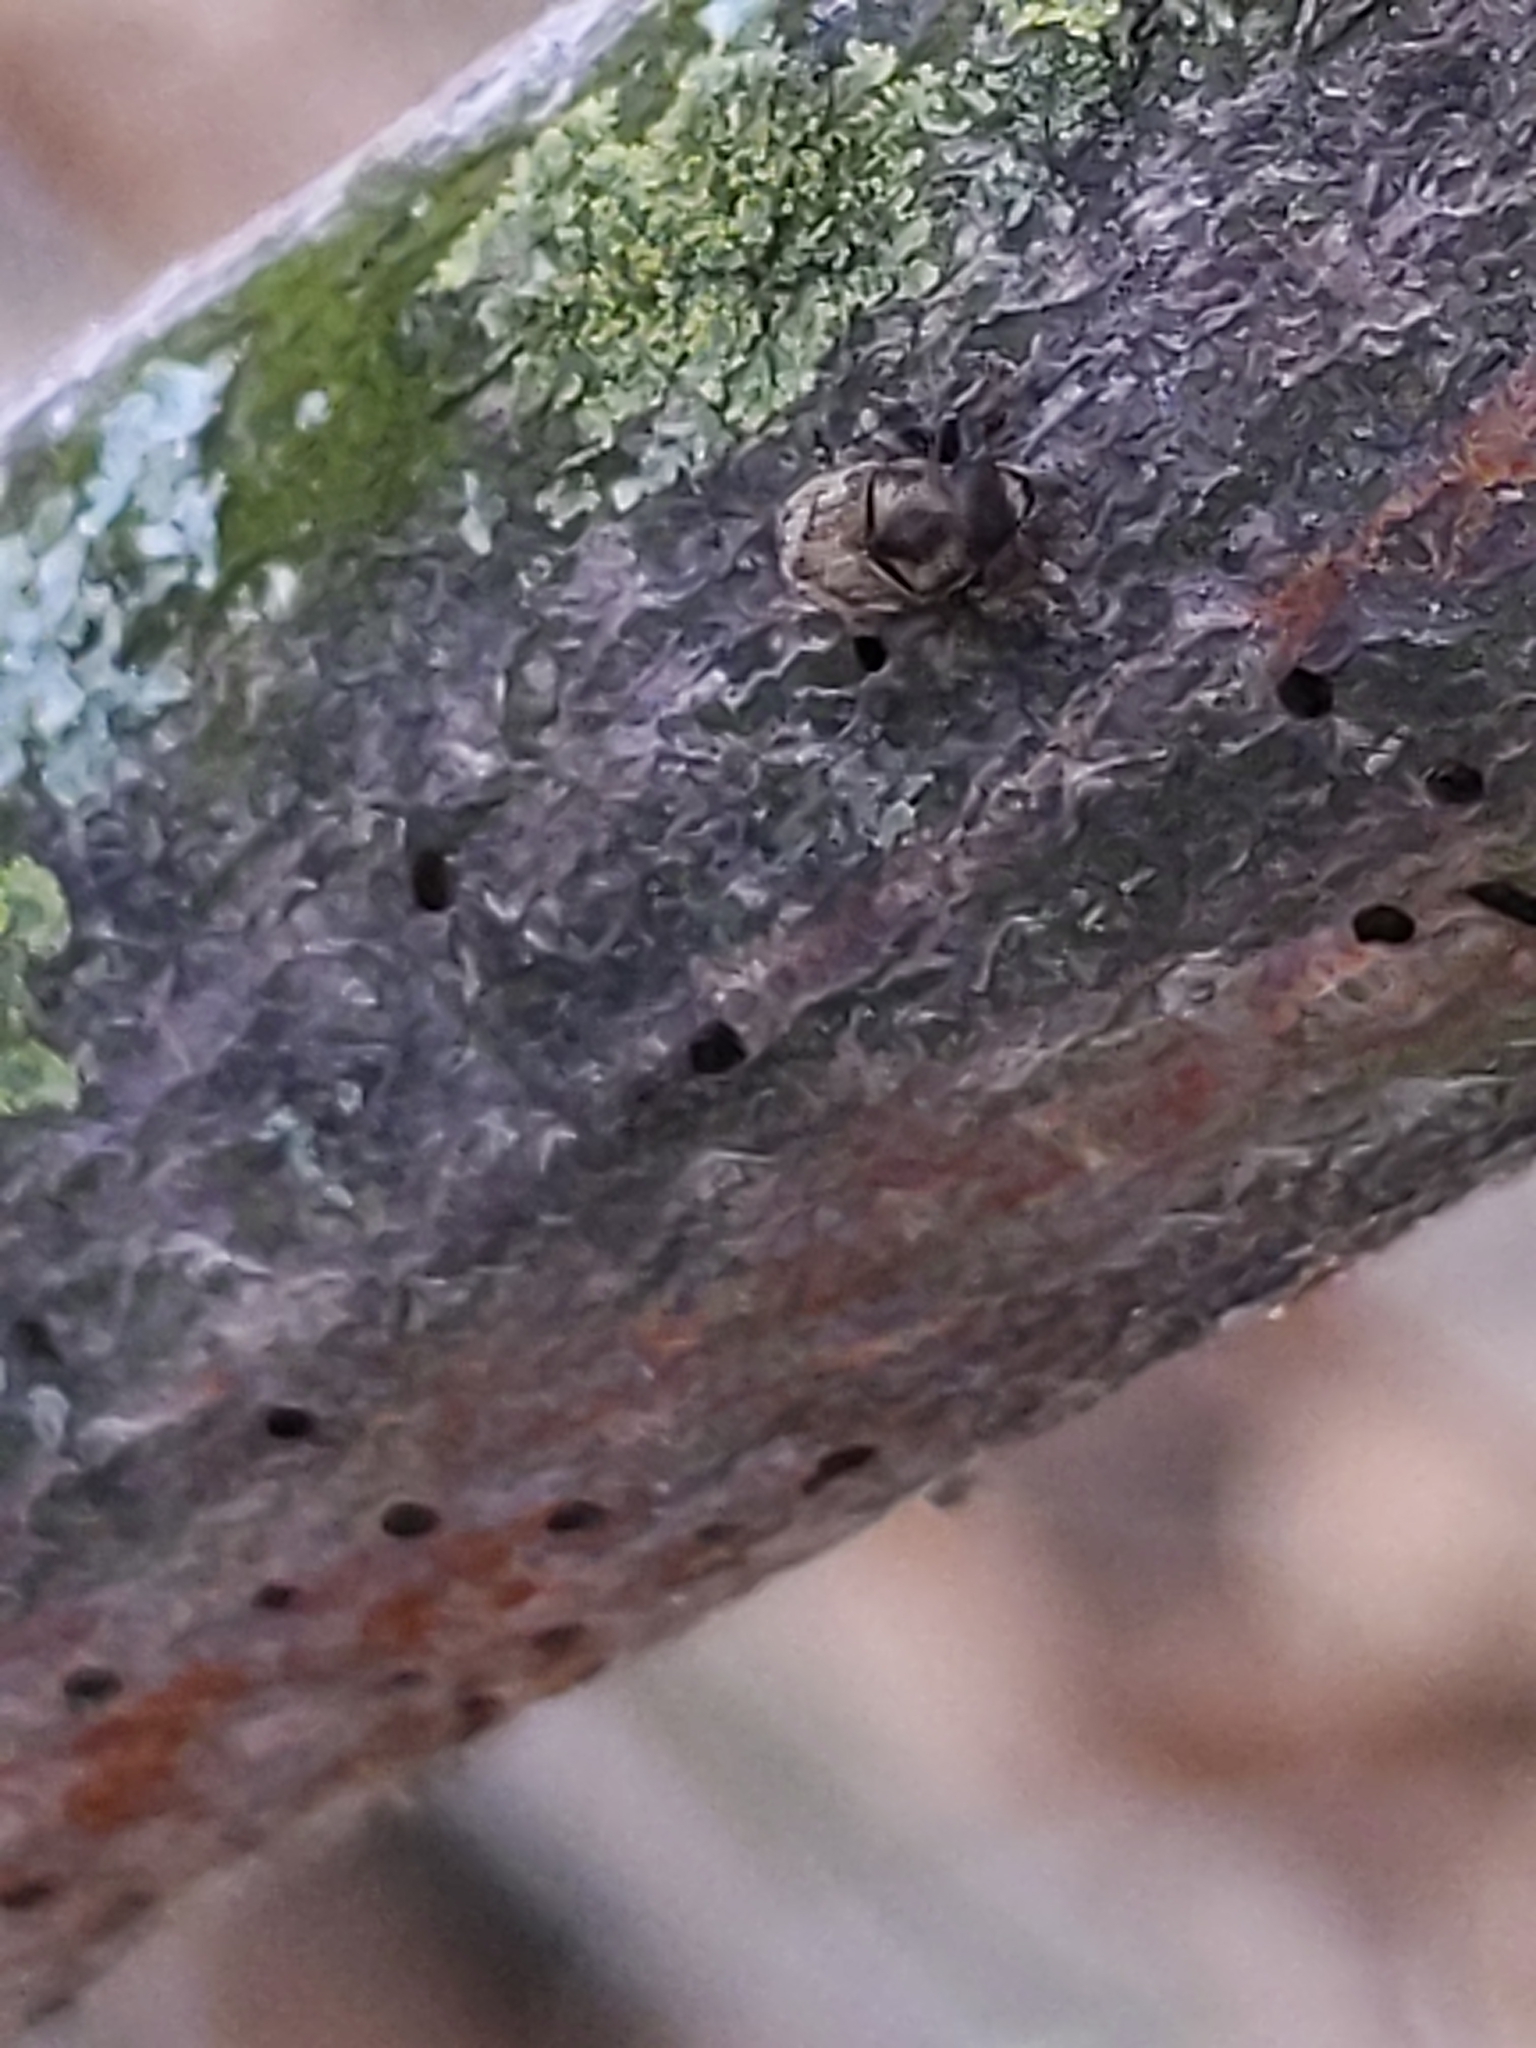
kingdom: Animalia
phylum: Arthropoda
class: Insecta
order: Coleoptera
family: Curculionidae
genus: Hylesinus
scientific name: Hylesinus
